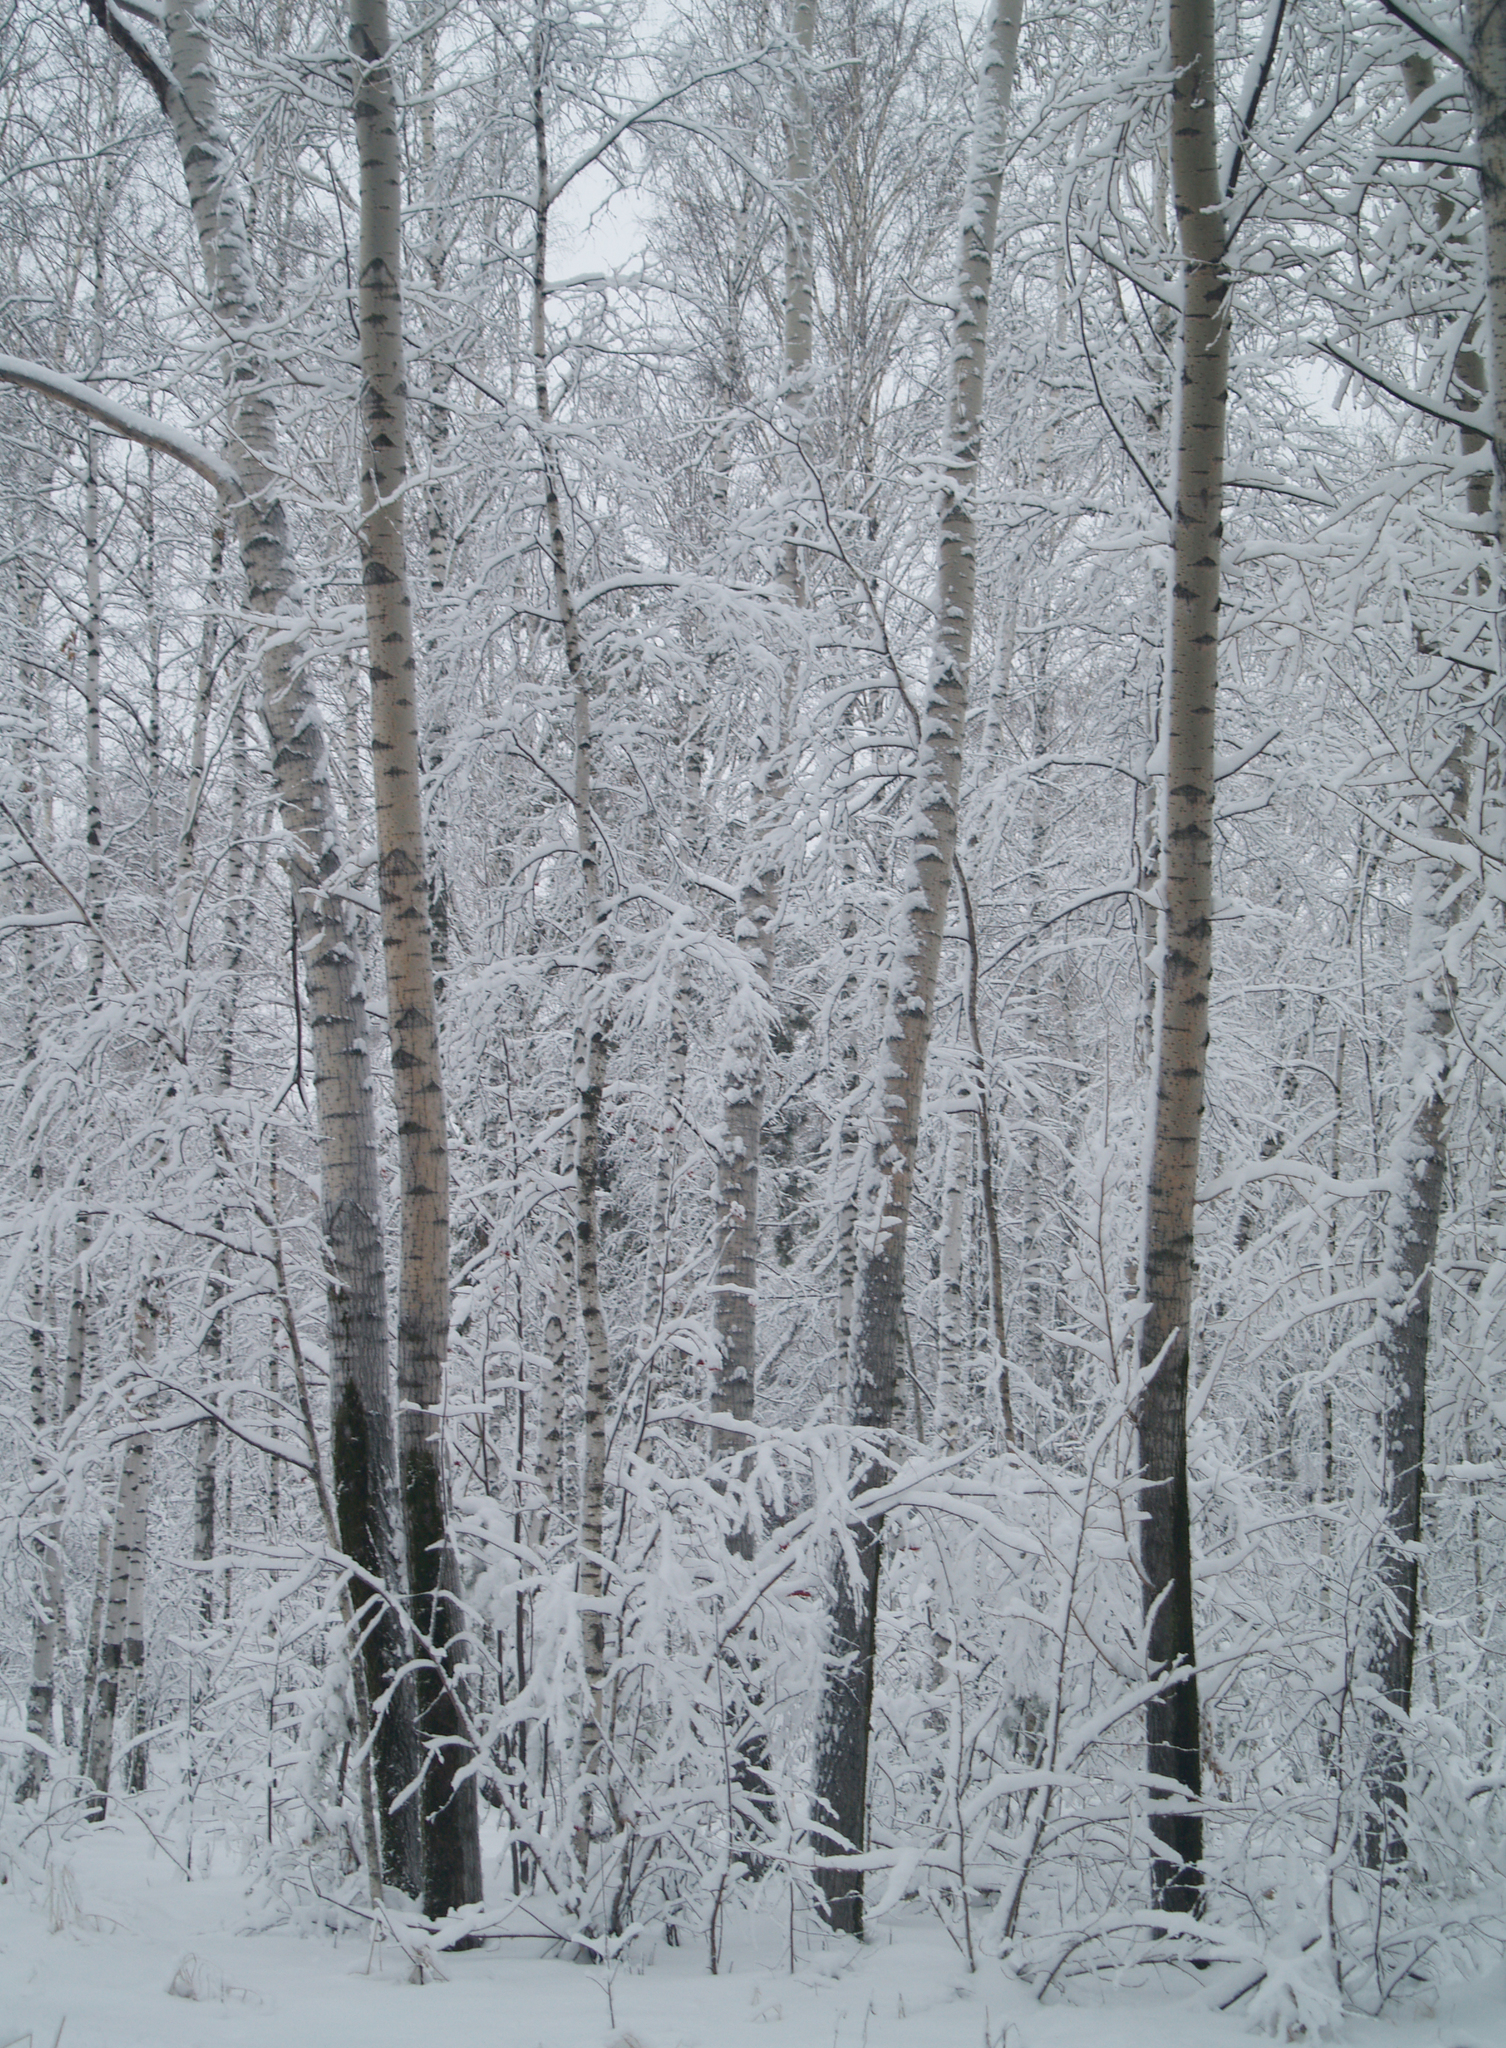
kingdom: Plantae
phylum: Tracheophyta
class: Magnoliopsida
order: Malpighiales
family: Salicaceae
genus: Populus
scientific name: Populus tremula
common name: European aspen
